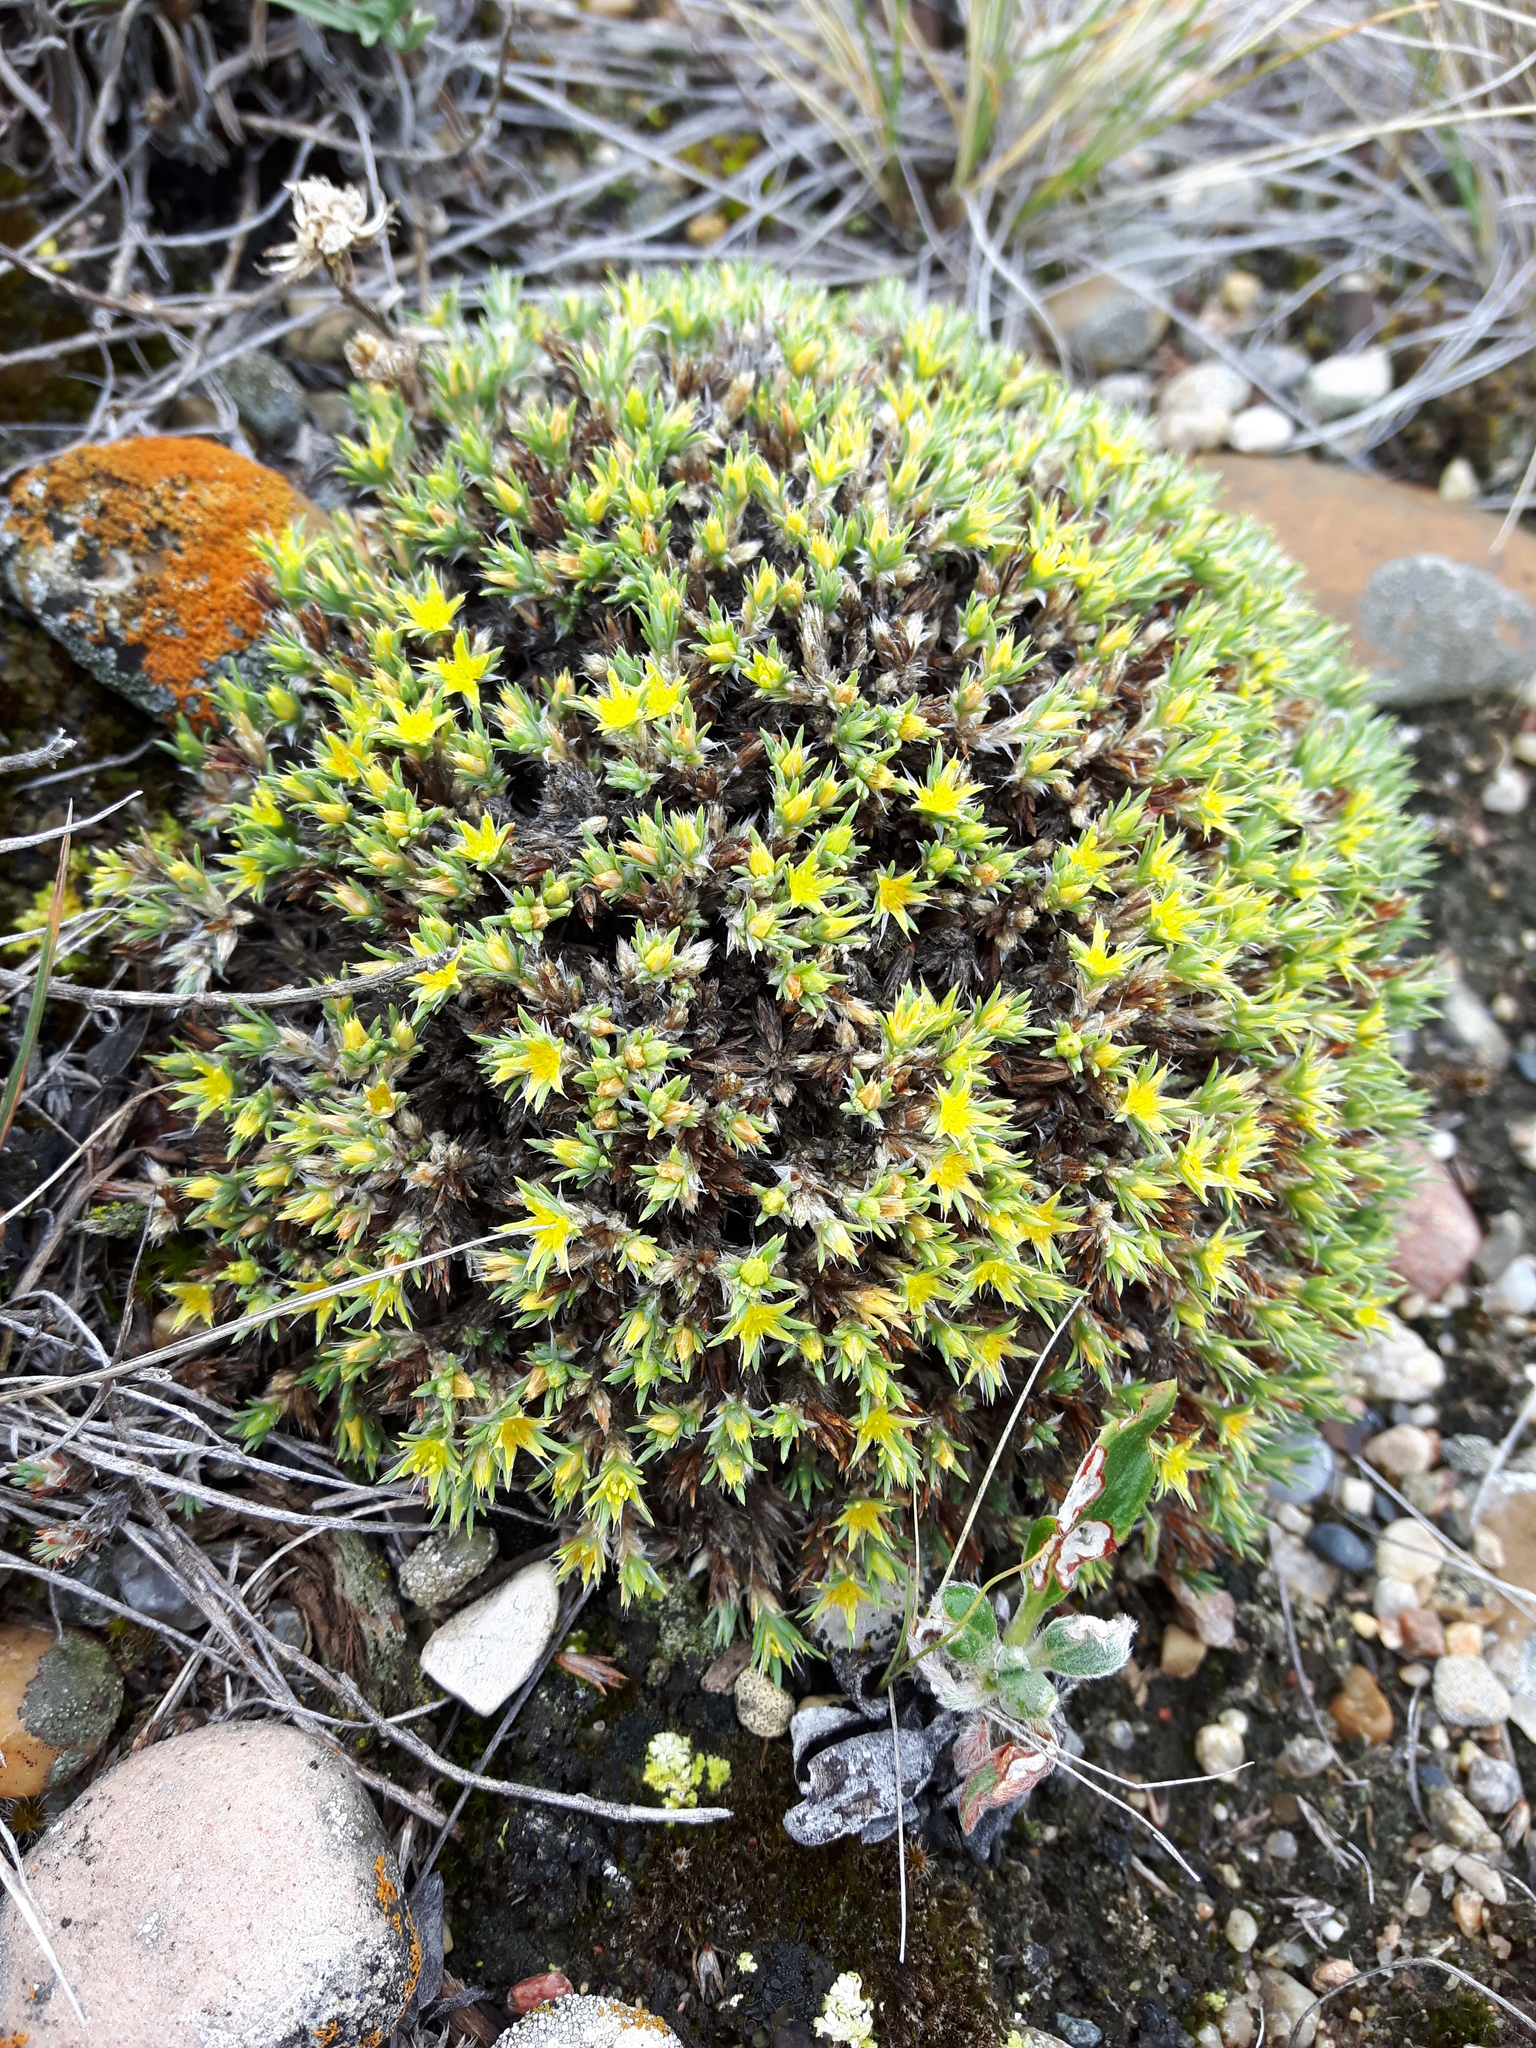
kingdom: Plantae
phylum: Tracheophyta
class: Magnoliopsida
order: Caryophyllales
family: Caryophyllaceae
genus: Paronychia
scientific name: Paronychia sessiliflora
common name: Creeping nailwort
